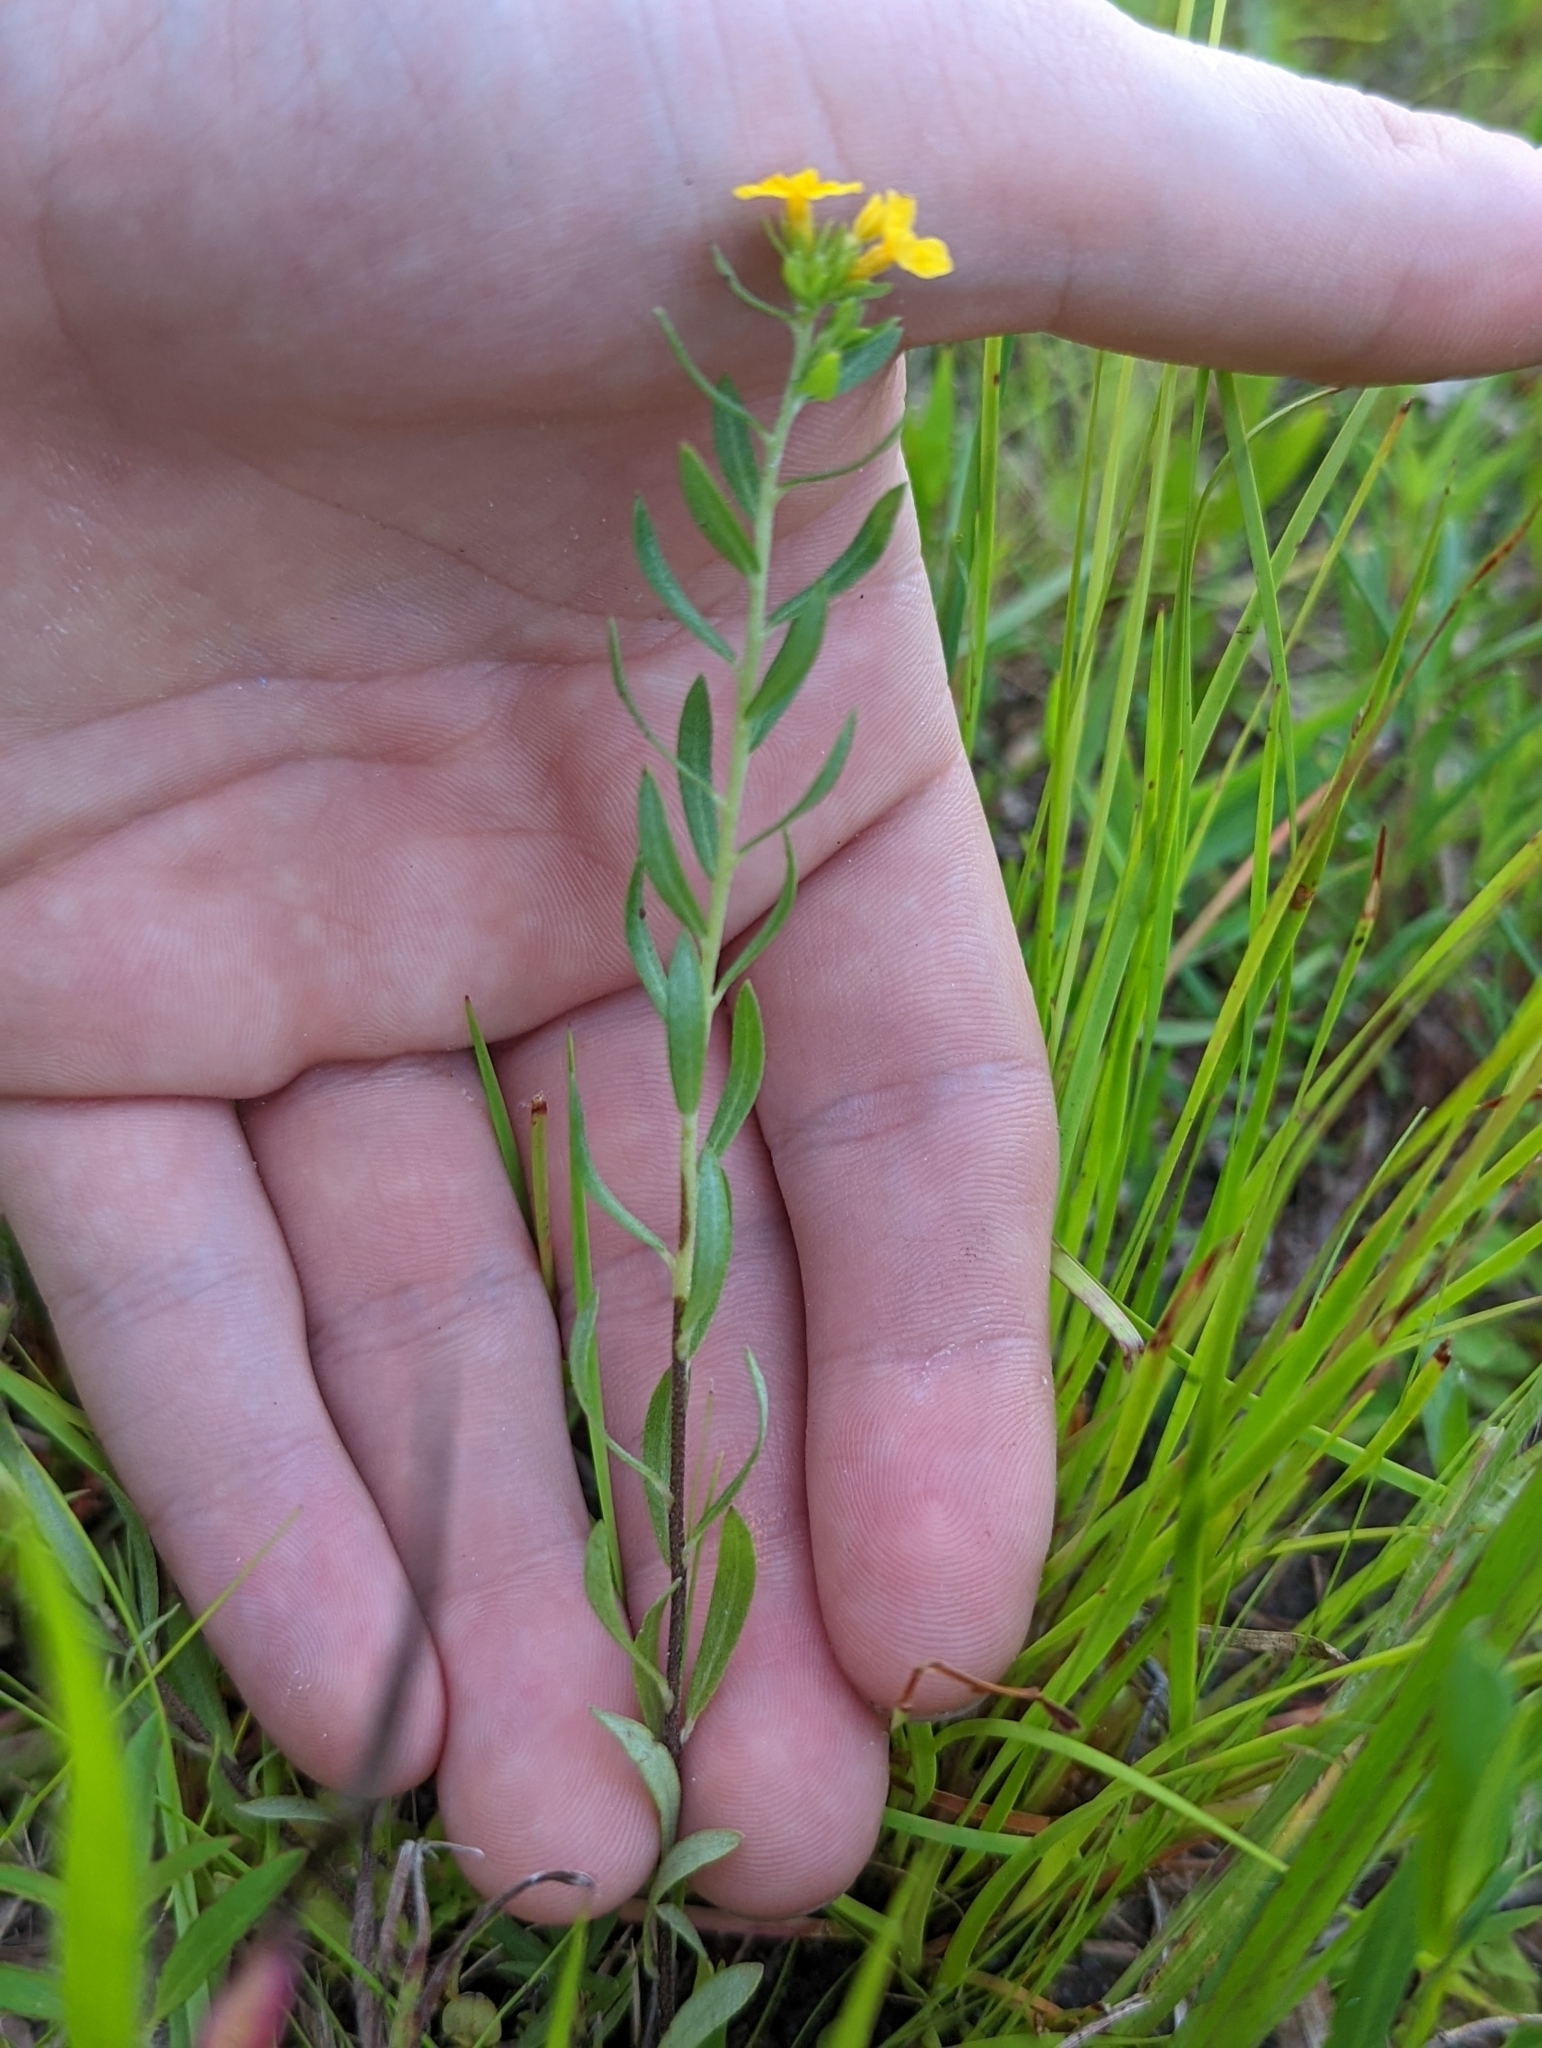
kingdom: Plantae
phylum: Tracheophyta
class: Magnoliopsida
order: Boraginales
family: Heliotropiaceae
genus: Euploca
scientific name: Euploca polyphylla
